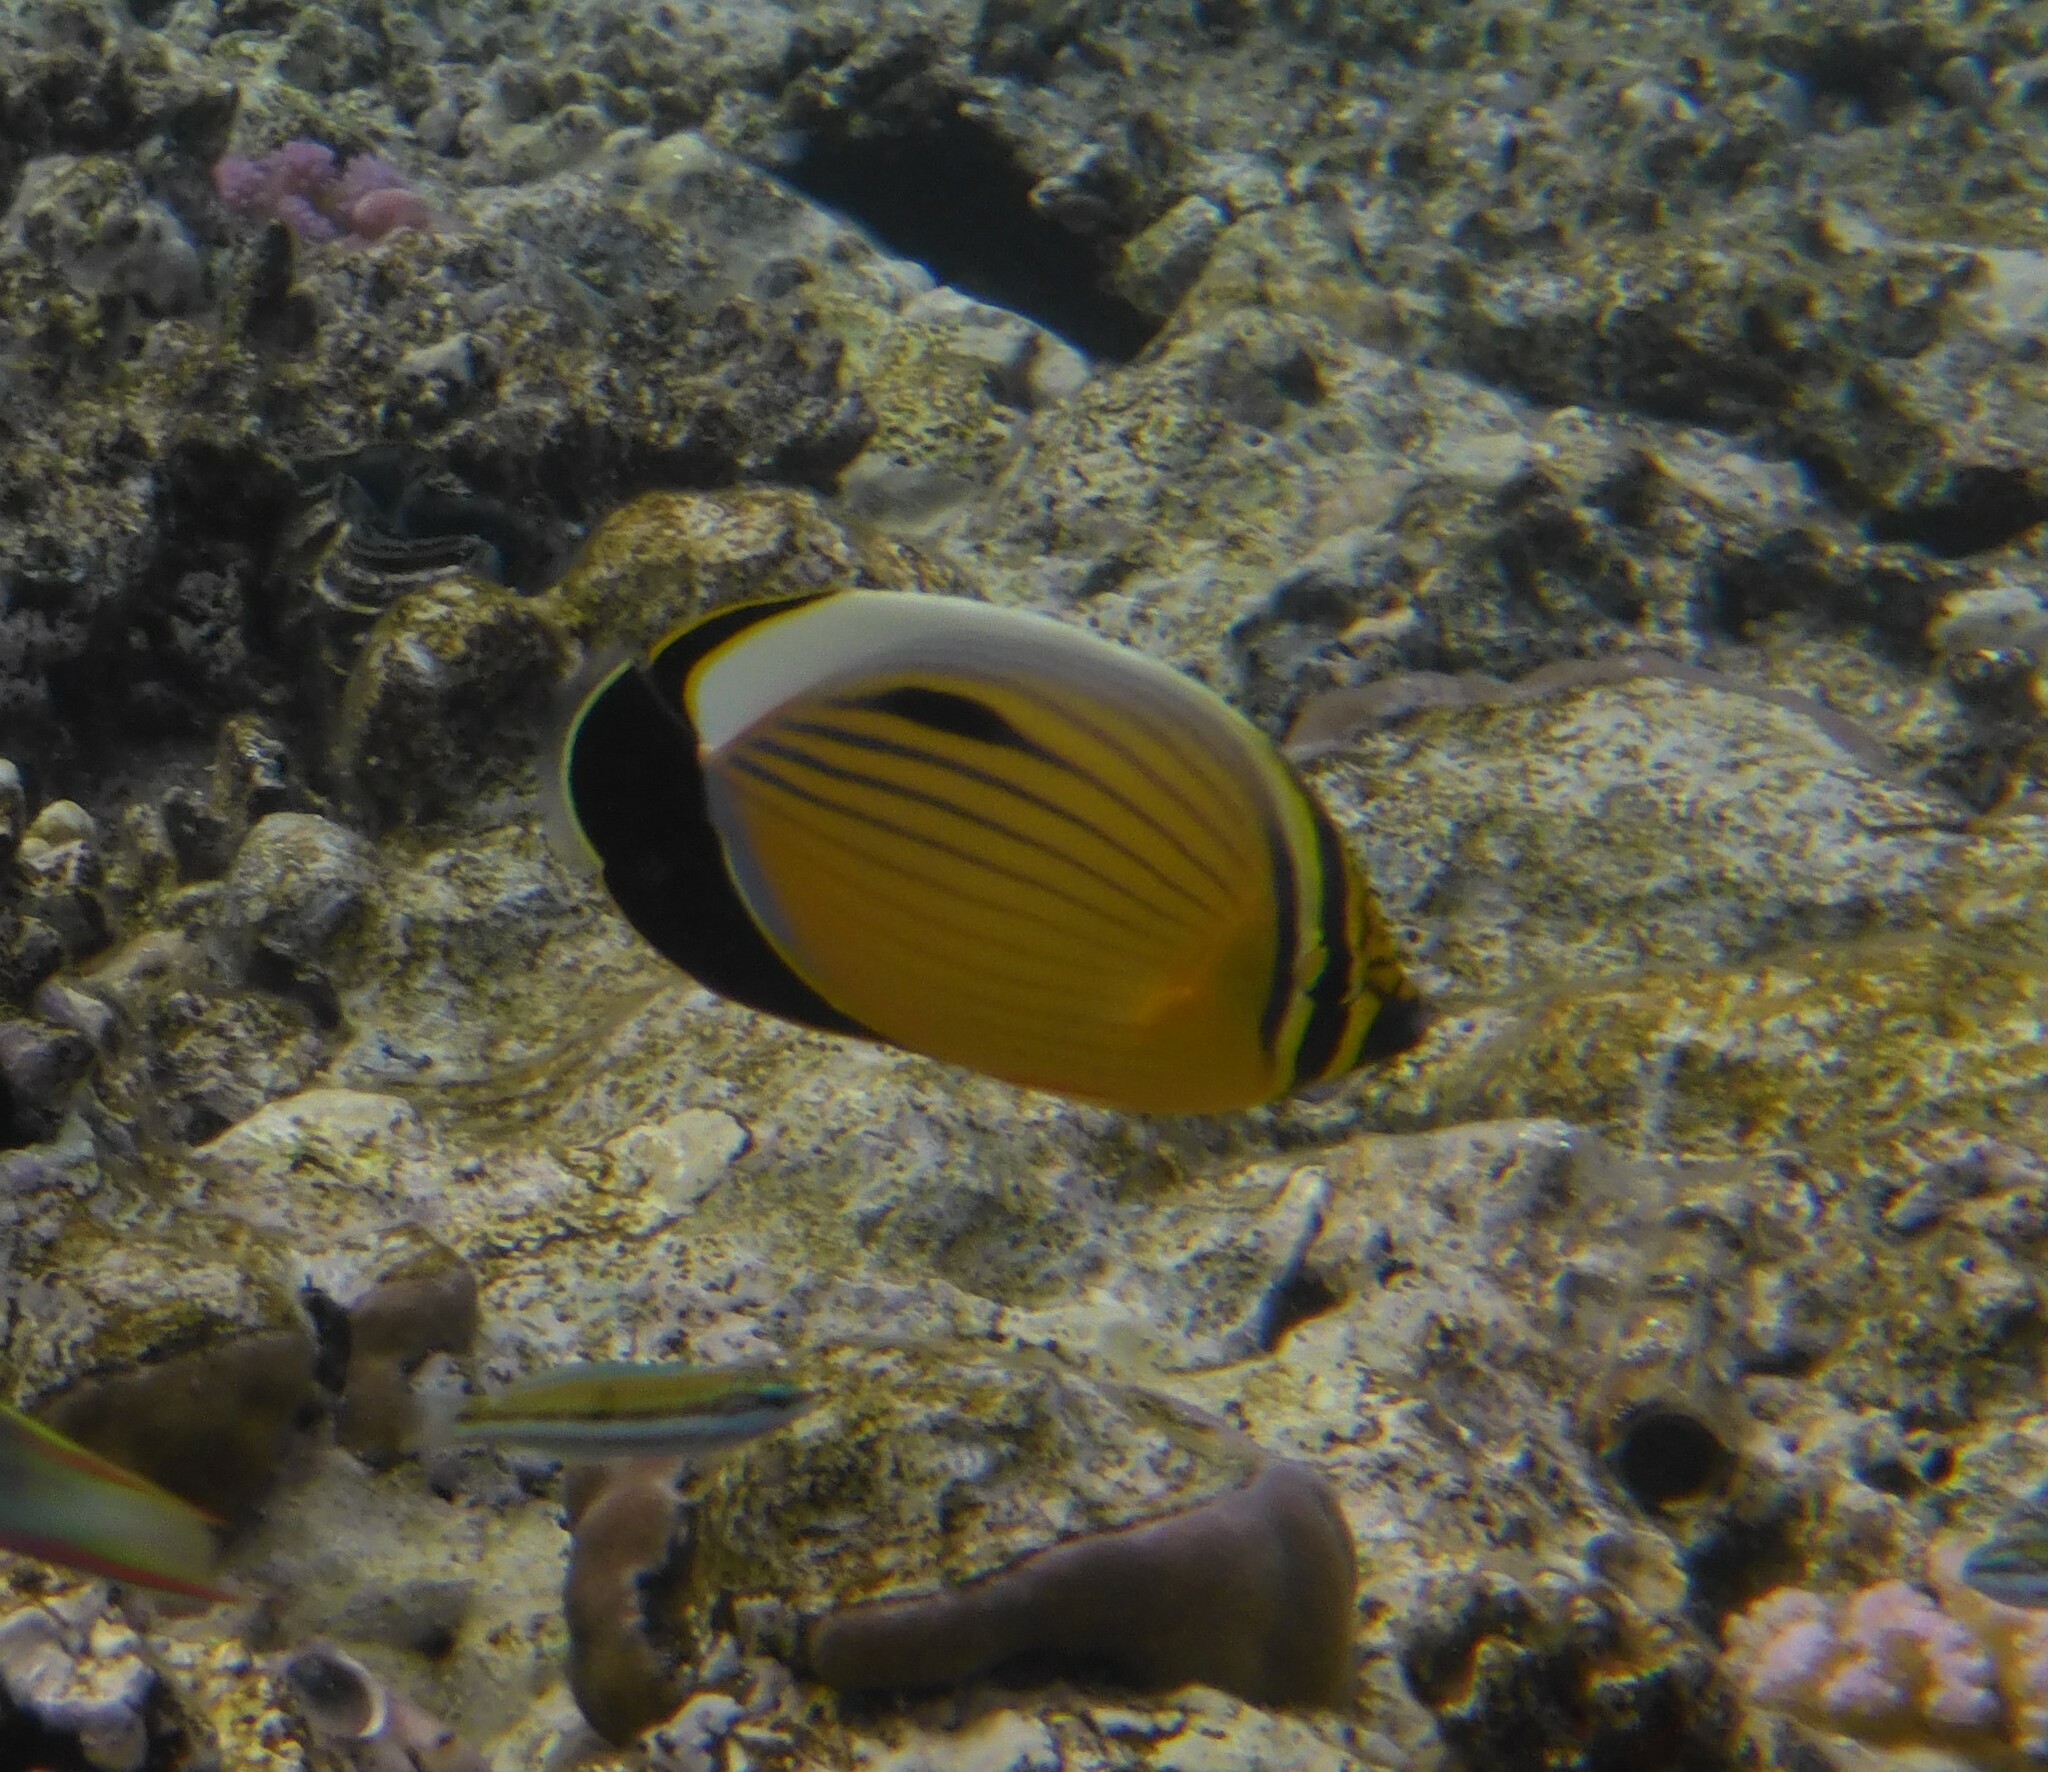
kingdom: Animalia
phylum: Chordata
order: Perciformes
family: Chaetodontidae
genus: Chaetodon
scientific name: Chaetodon austriacus
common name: Exquisite butterflyfish
